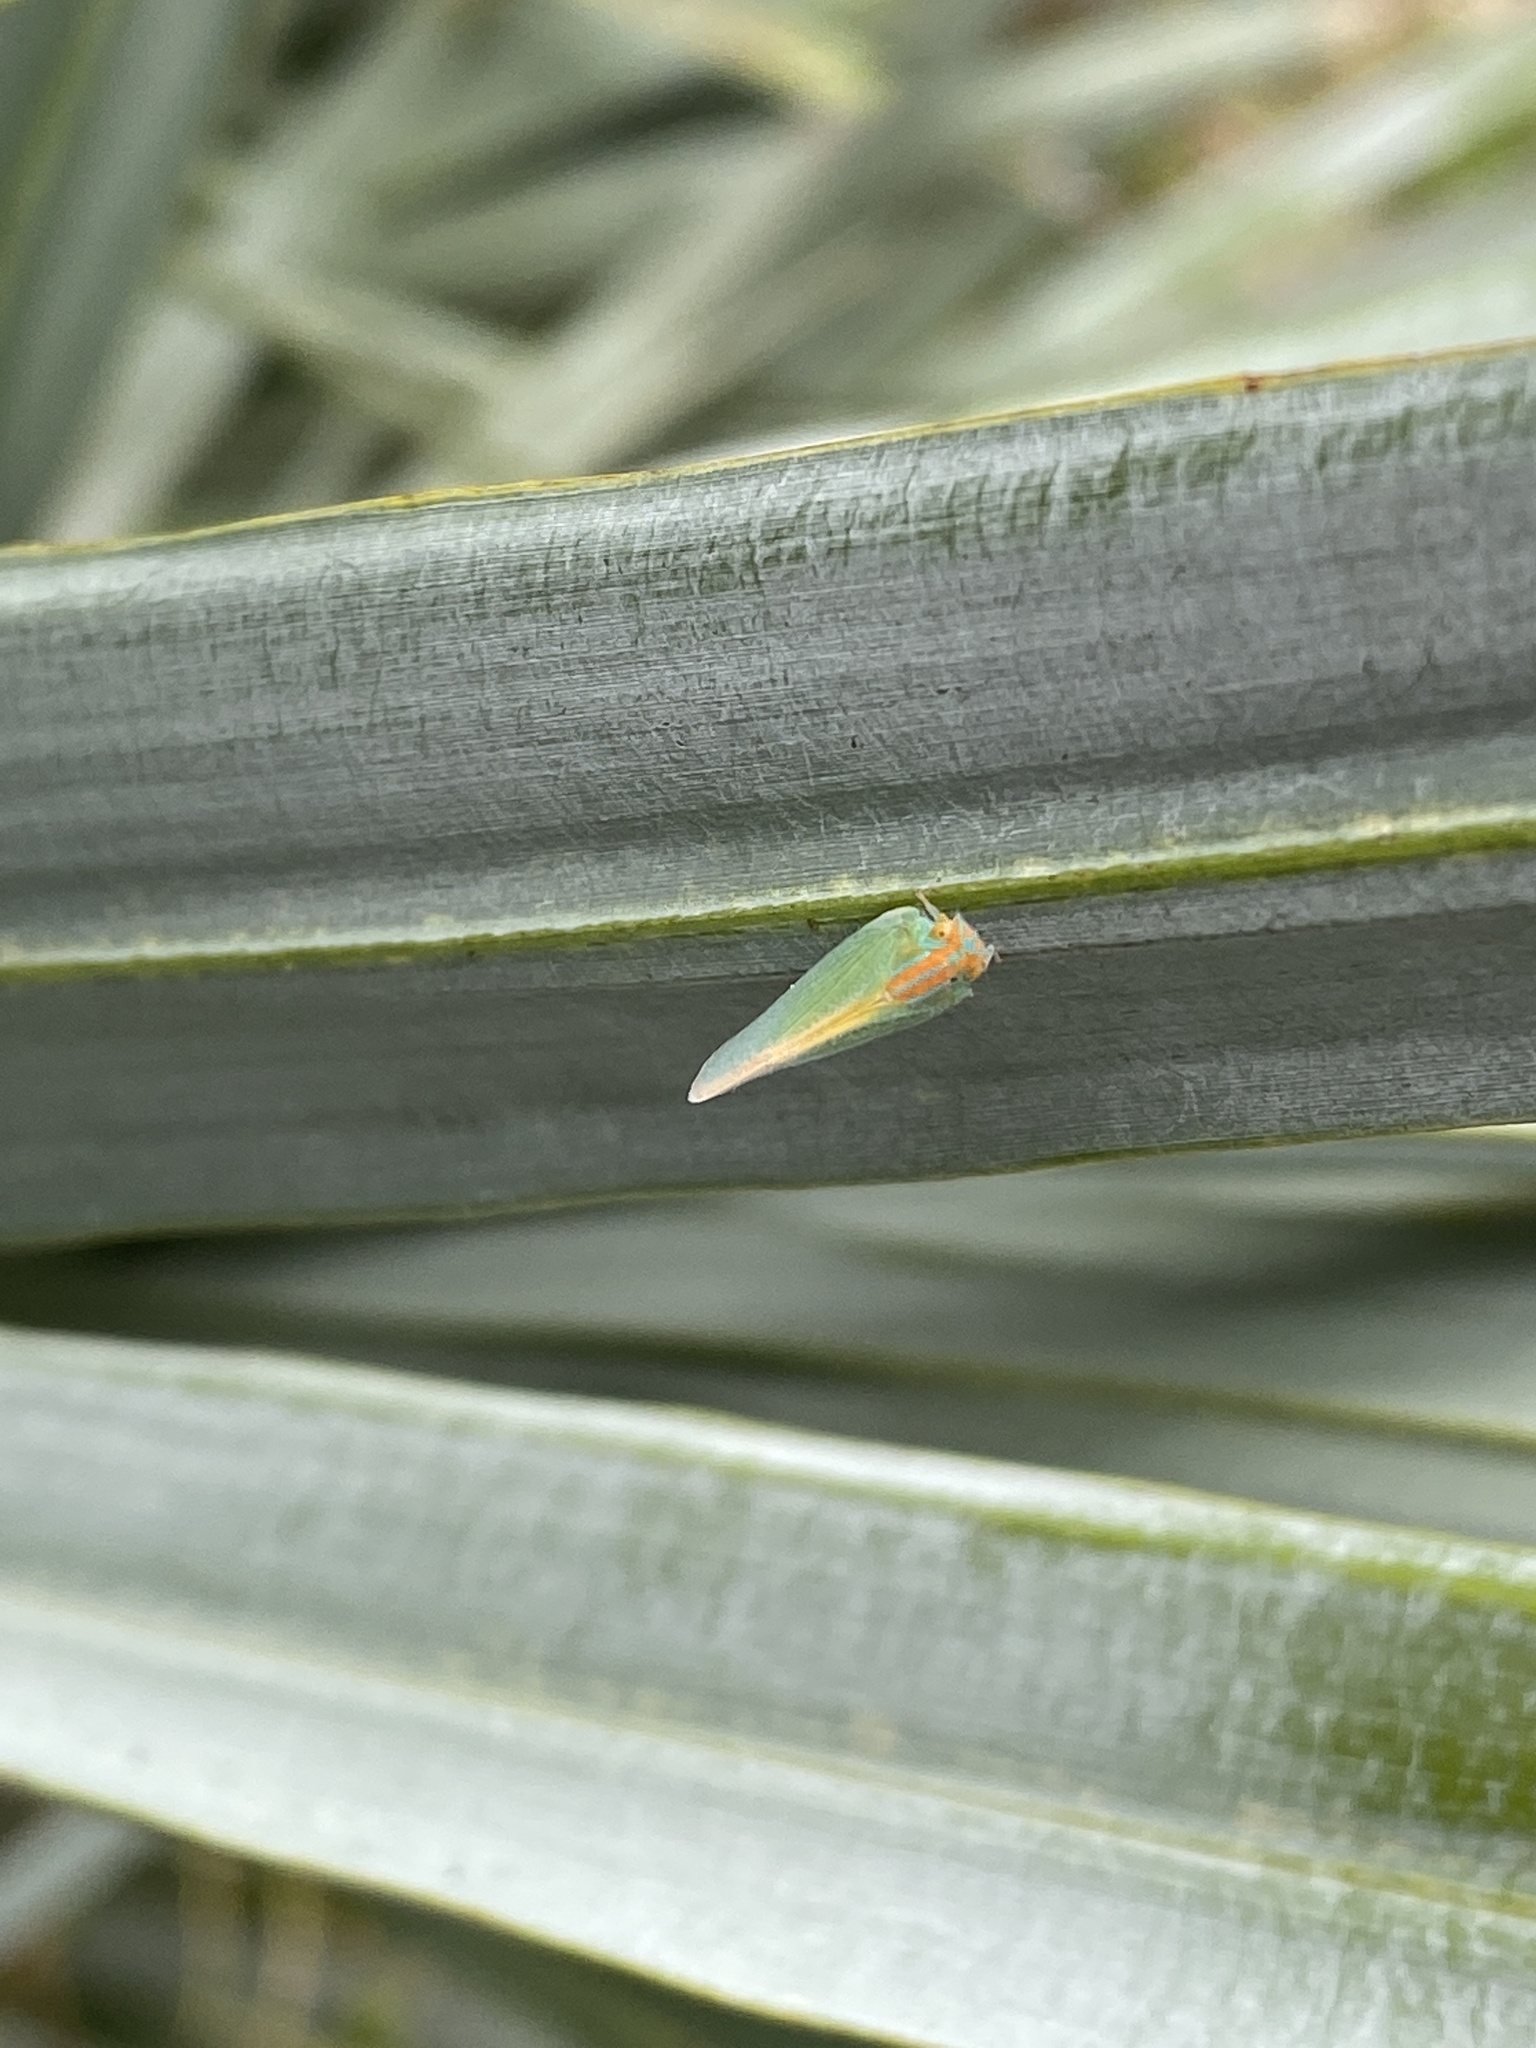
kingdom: Animalia
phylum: Arthropoda
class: Insecta
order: Hemiptera
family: Flatidae
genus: Ormenaria
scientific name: Ormenaria rufifascia
